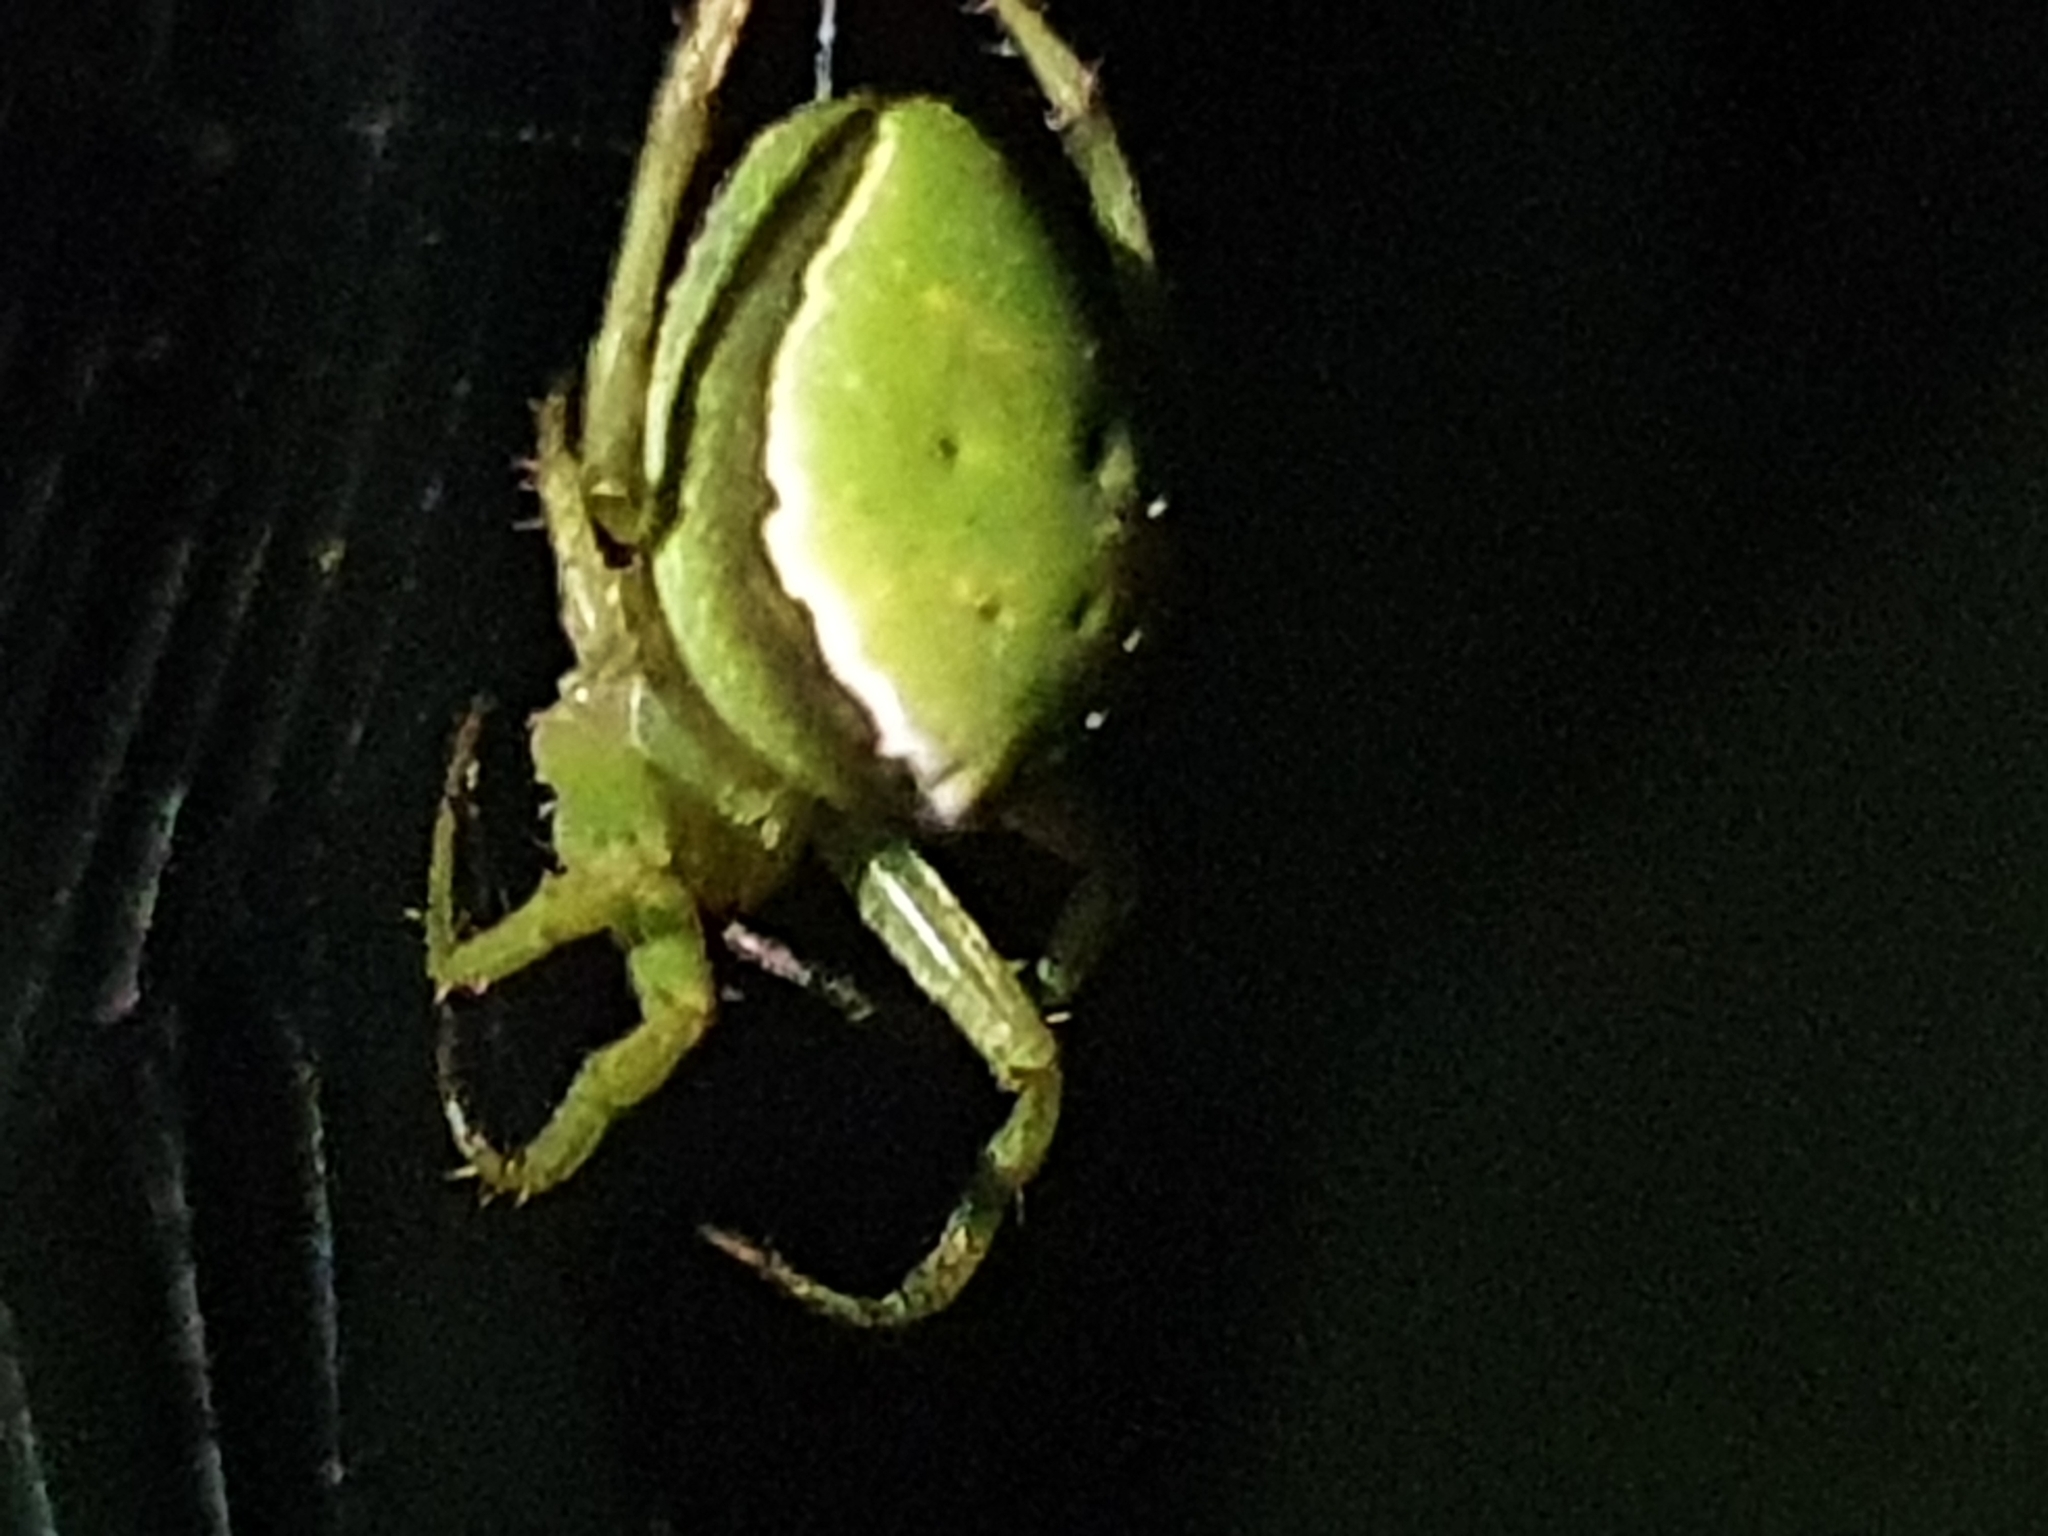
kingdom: Animalia
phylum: Arthropoda
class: Arachnida
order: Araneae
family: Araneidae
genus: Colaranea
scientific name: Colaranea viriditas
